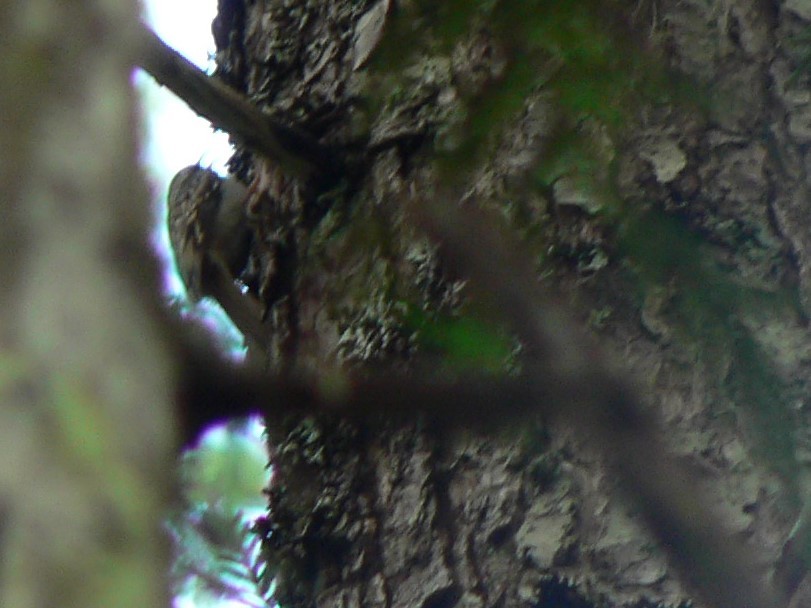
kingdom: Animalia
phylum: Chordata
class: Aves
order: Passeriformes
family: Certhiidae
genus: Certhia
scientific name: Certhia americana
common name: Brown creeper
